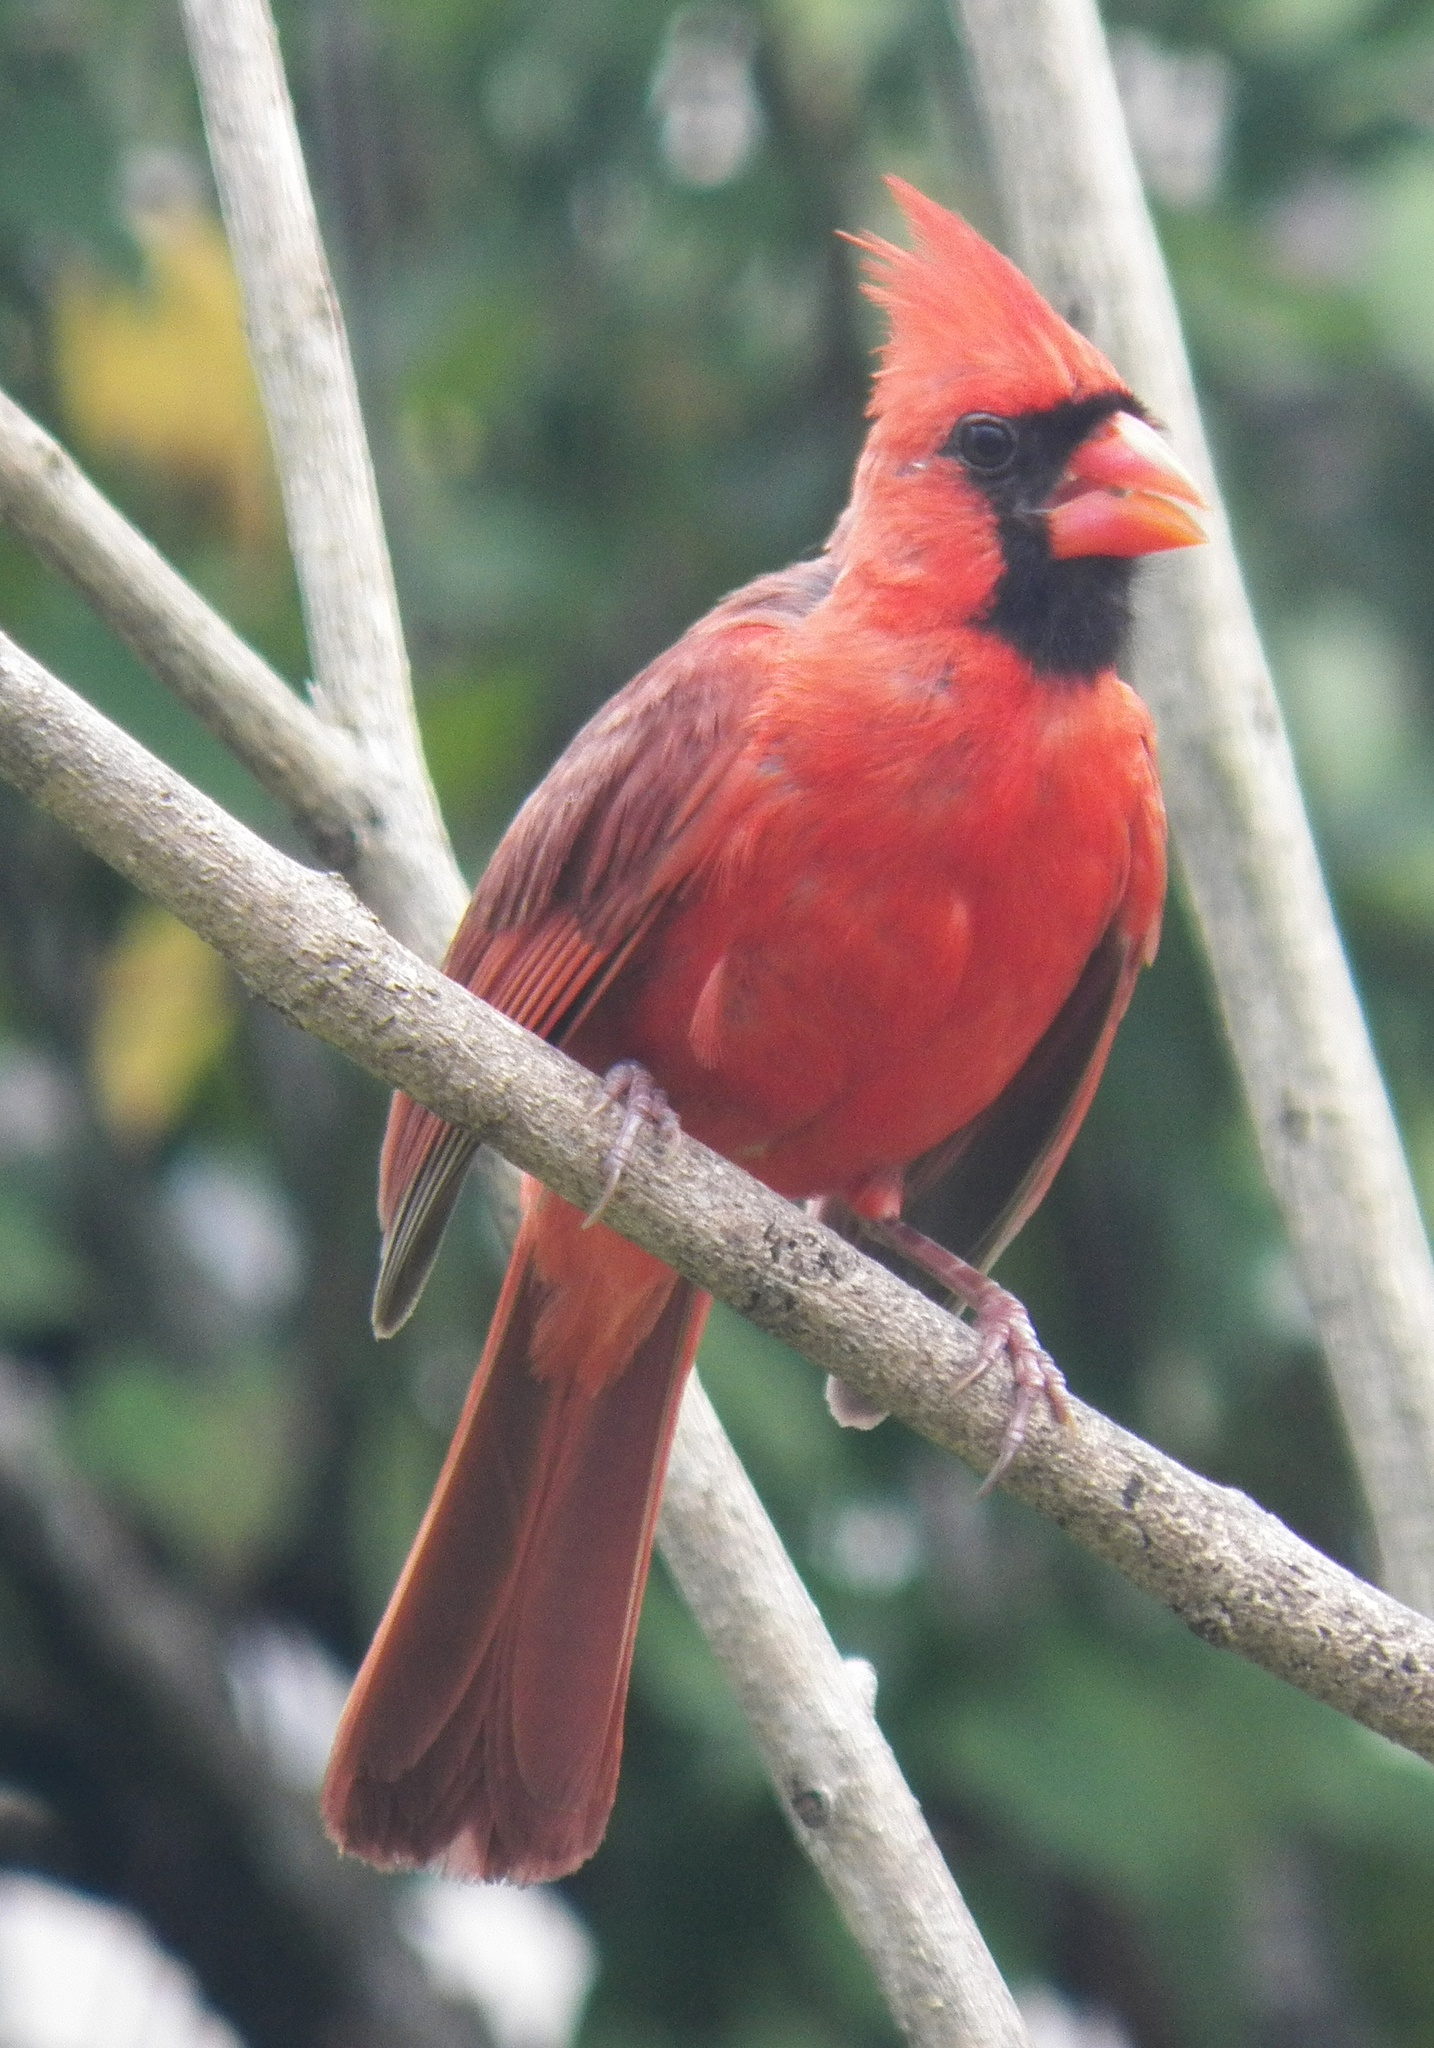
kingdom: Animalia
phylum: Chordata
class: Aves
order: Passeriformes
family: Cardinalidae
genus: Cardinalis
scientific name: Cardinalis cardinalis
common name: Northern cardinal
